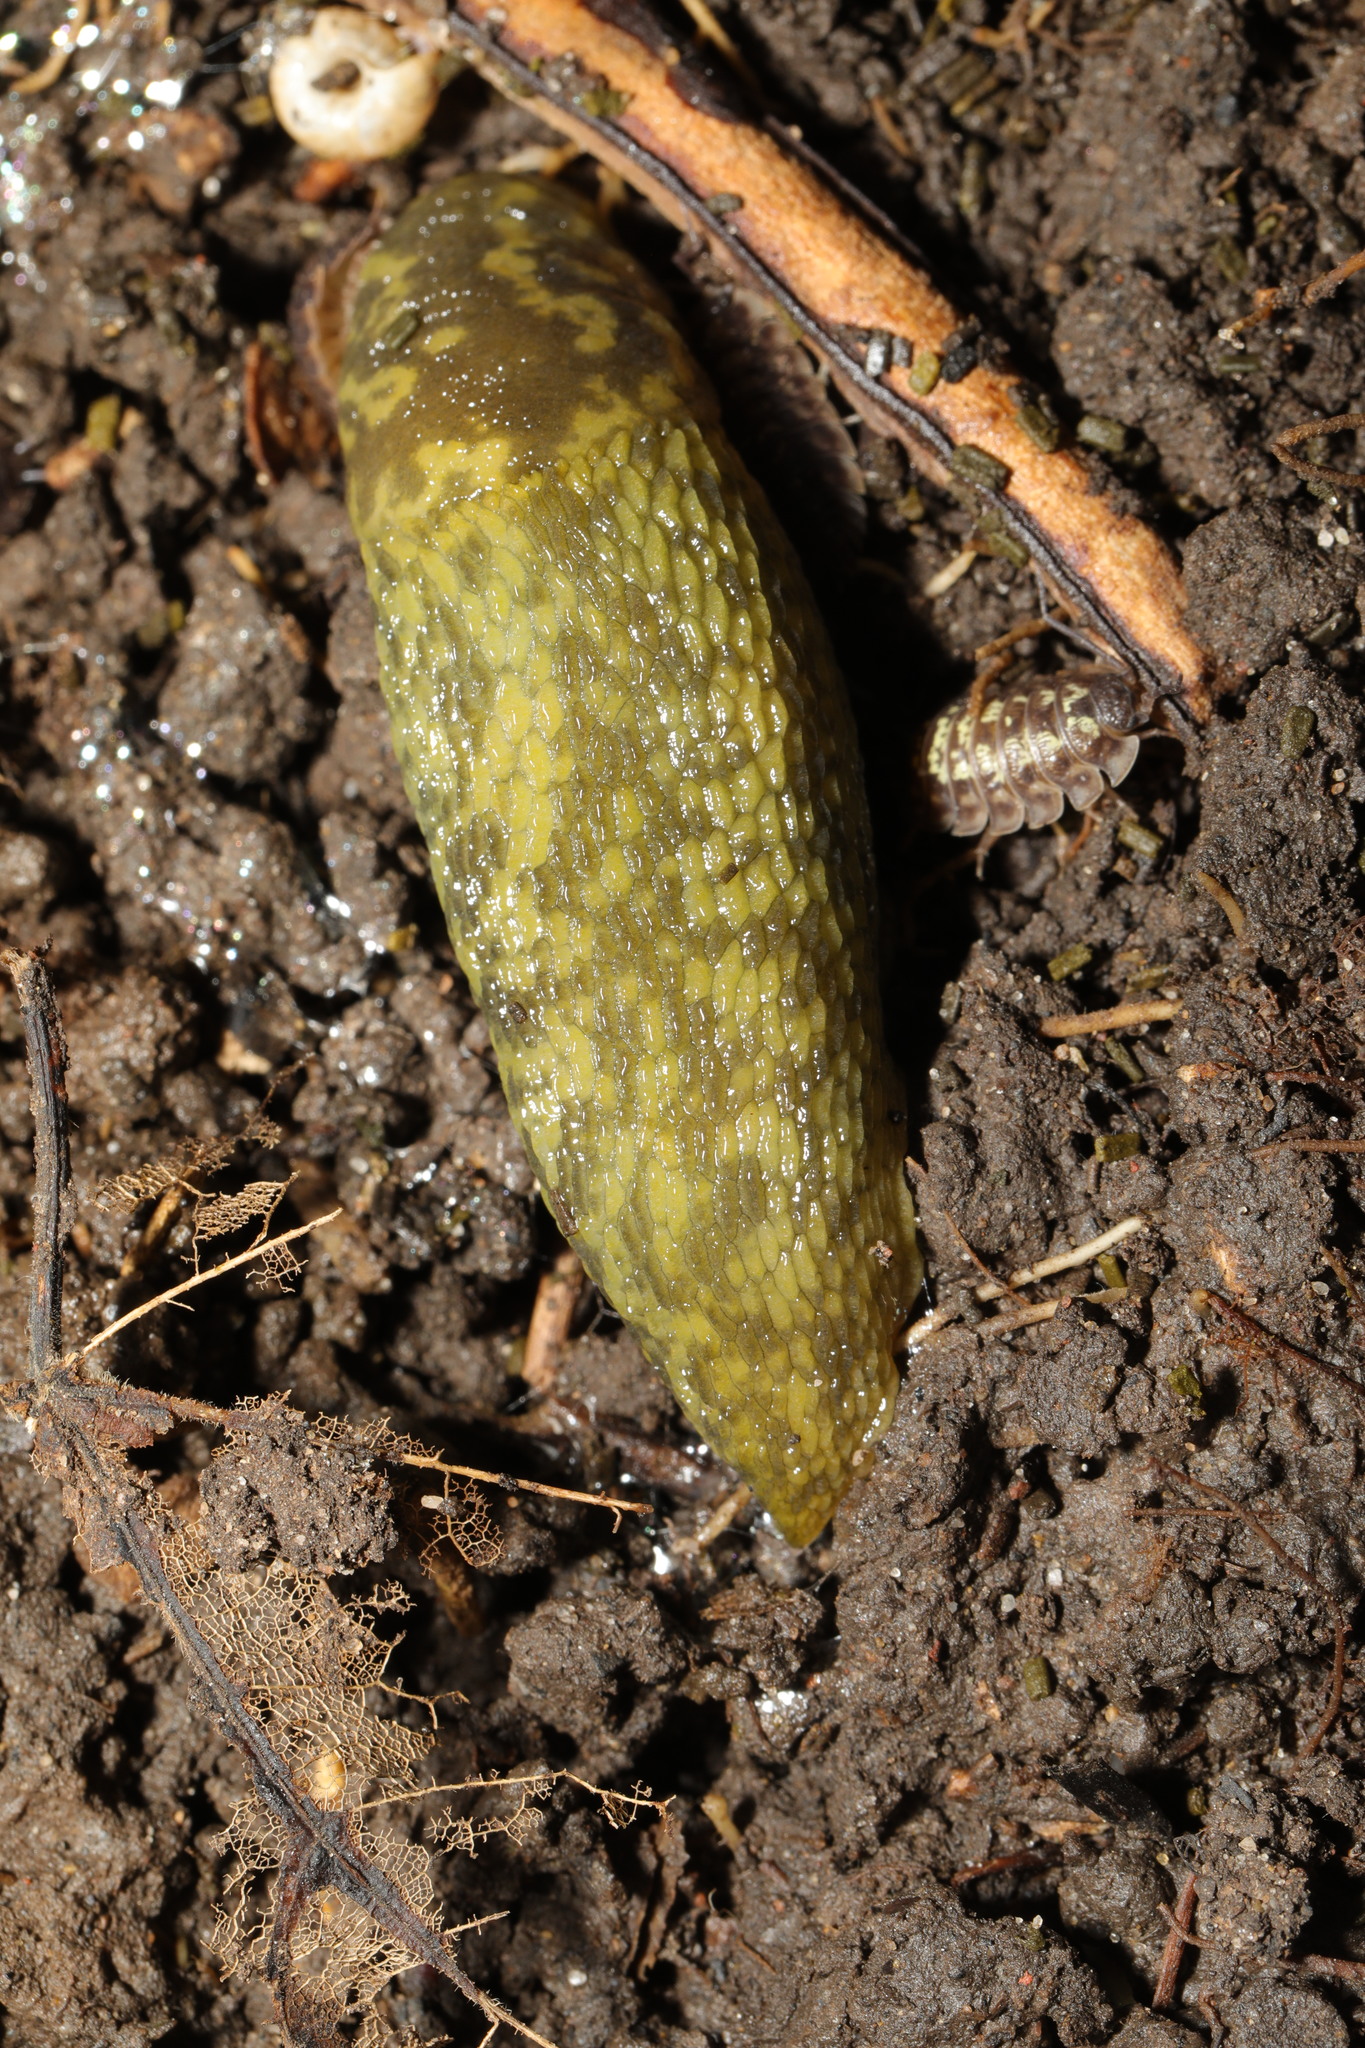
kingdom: Animalia
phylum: Mollusca
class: Gastropoda
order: Stylommatophora
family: Limacidae
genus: Limacus
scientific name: Limacus maculatus
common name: Irish yellow slug
